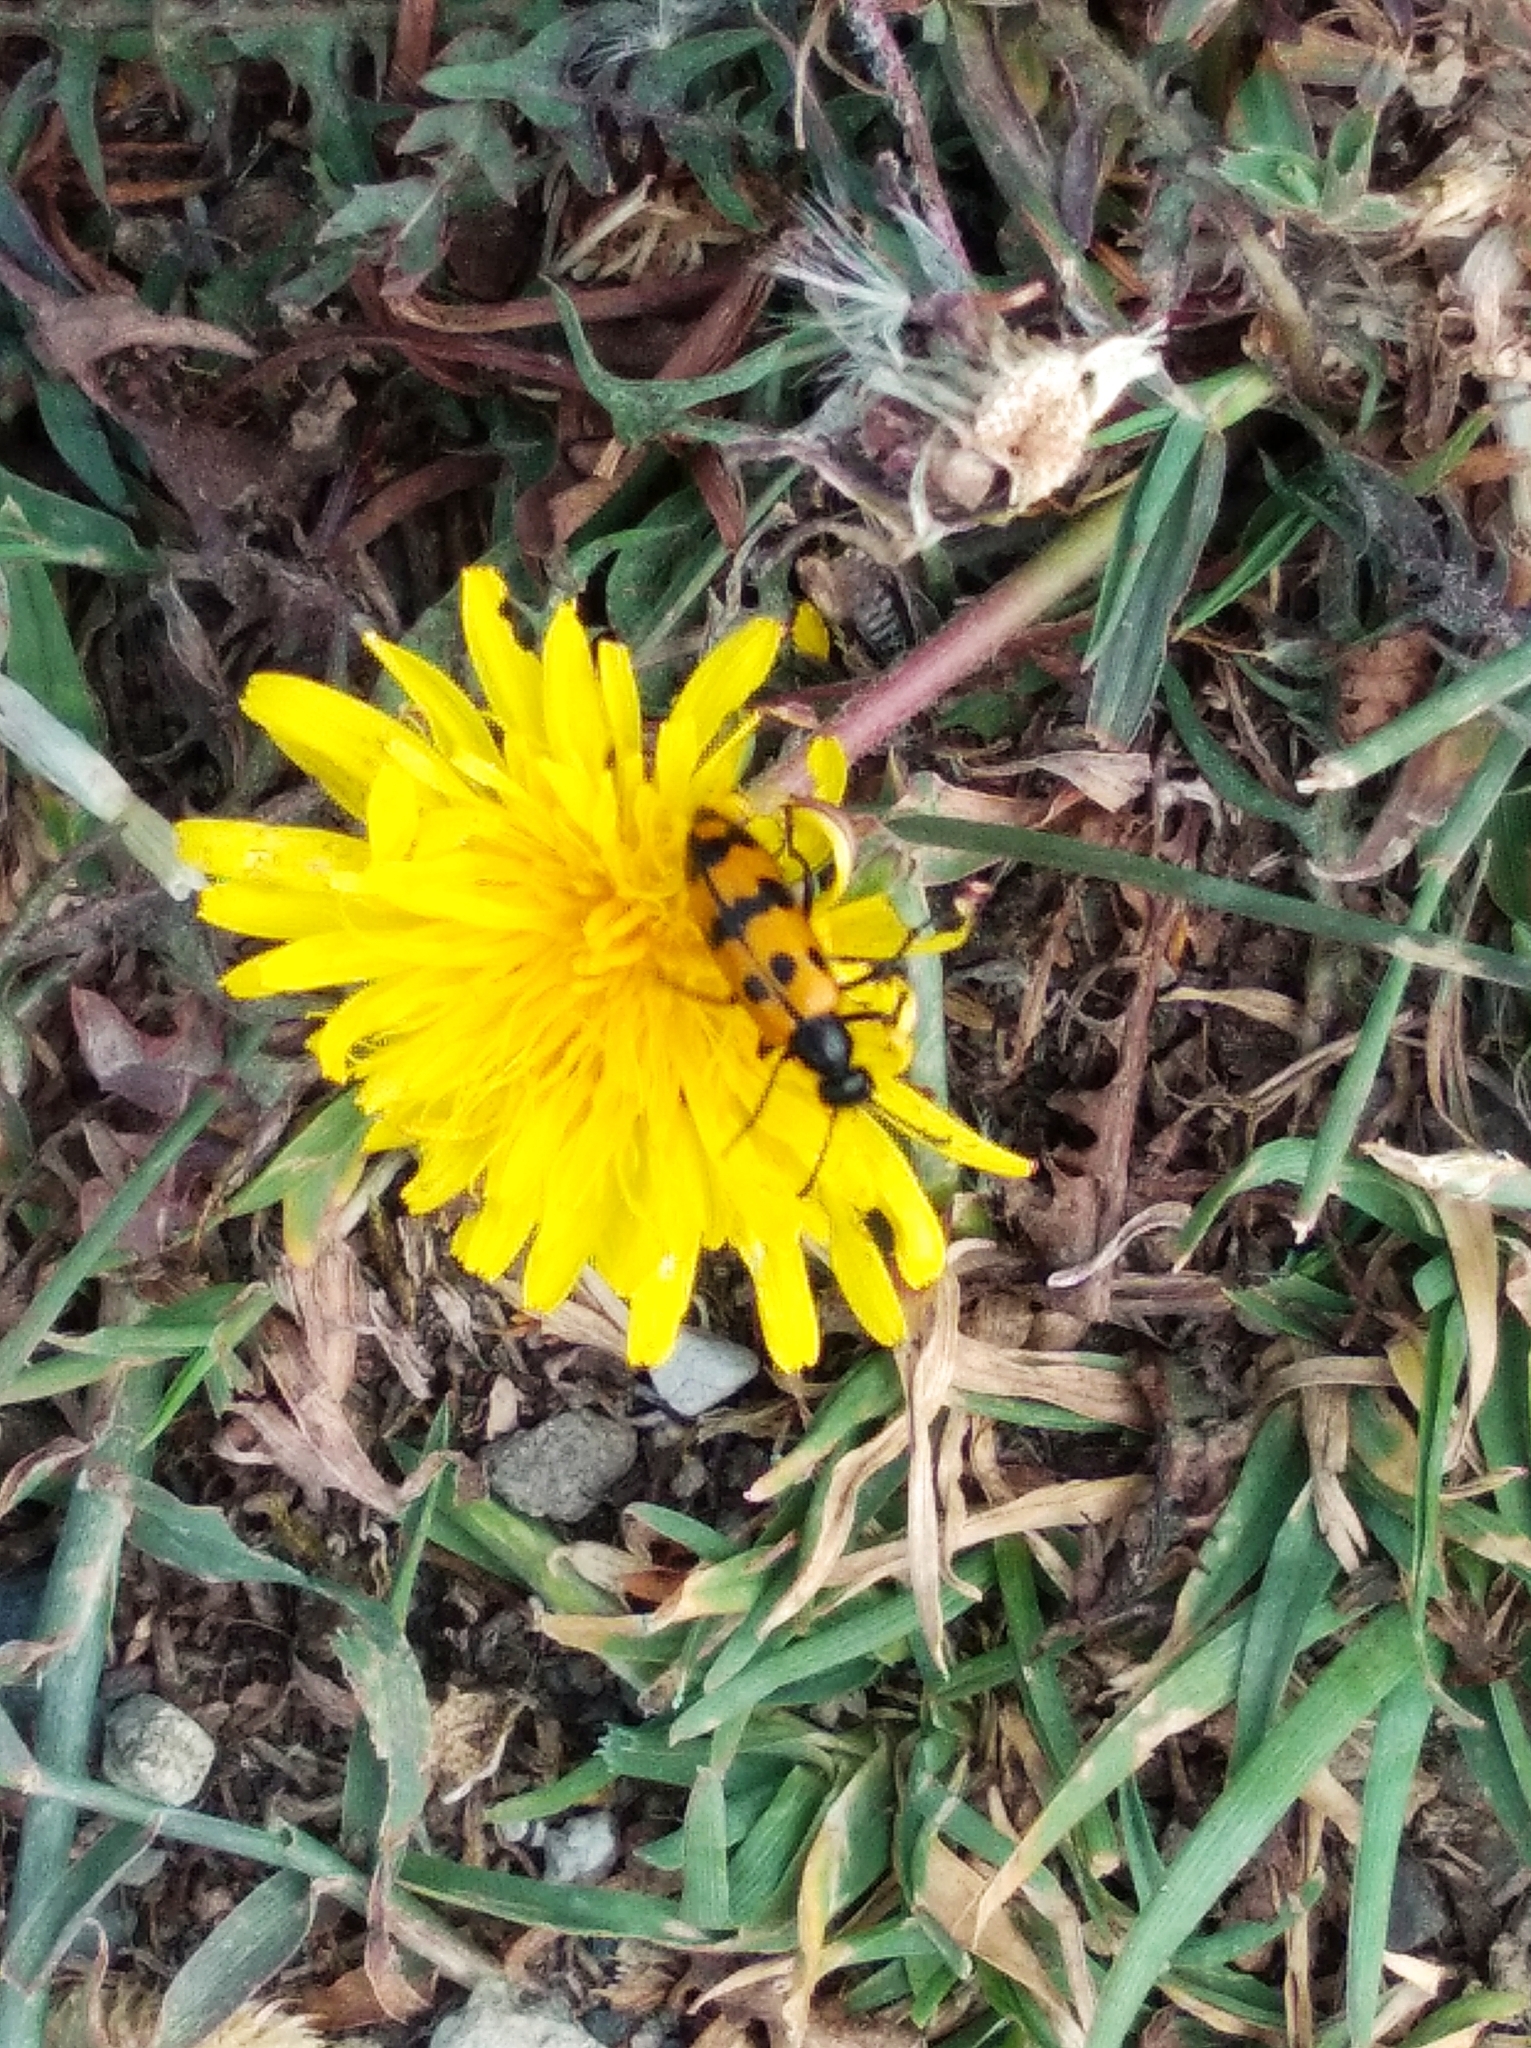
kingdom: Animalia
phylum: Arthropoda
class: Insecta
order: Coleoptera
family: Meloidae
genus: Mylabris
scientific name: Mylabris connata
